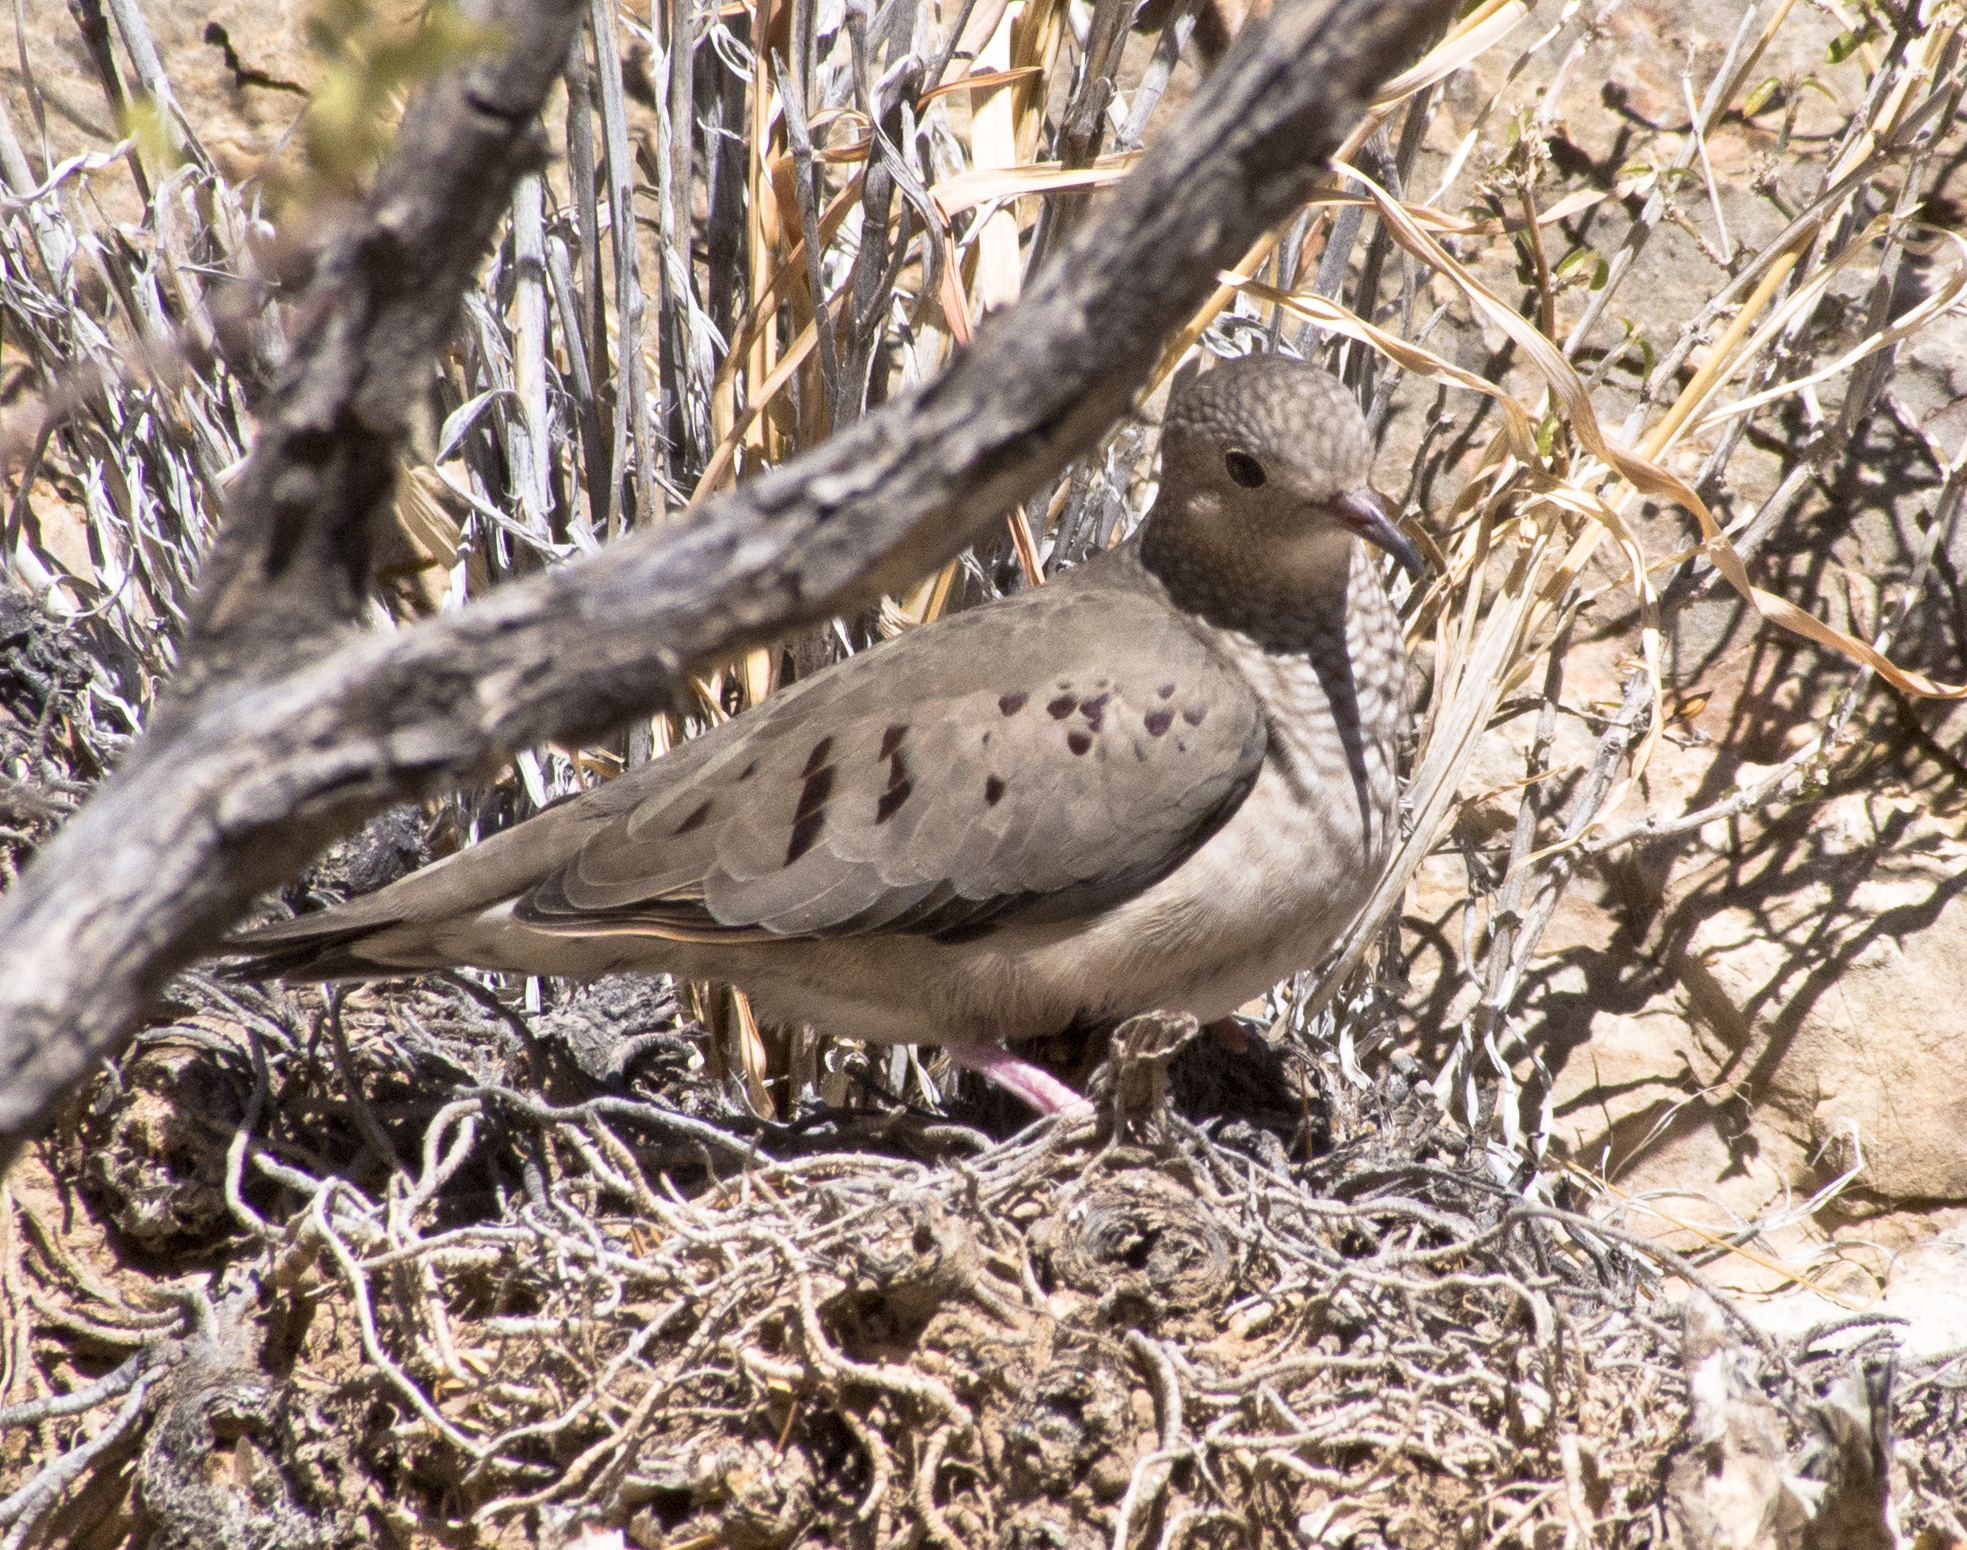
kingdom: Animalia
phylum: Chordata
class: Aves
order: Columbiformes
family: Columbidae
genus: Columbina
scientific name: Columbina passerina
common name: Common ground-dove
